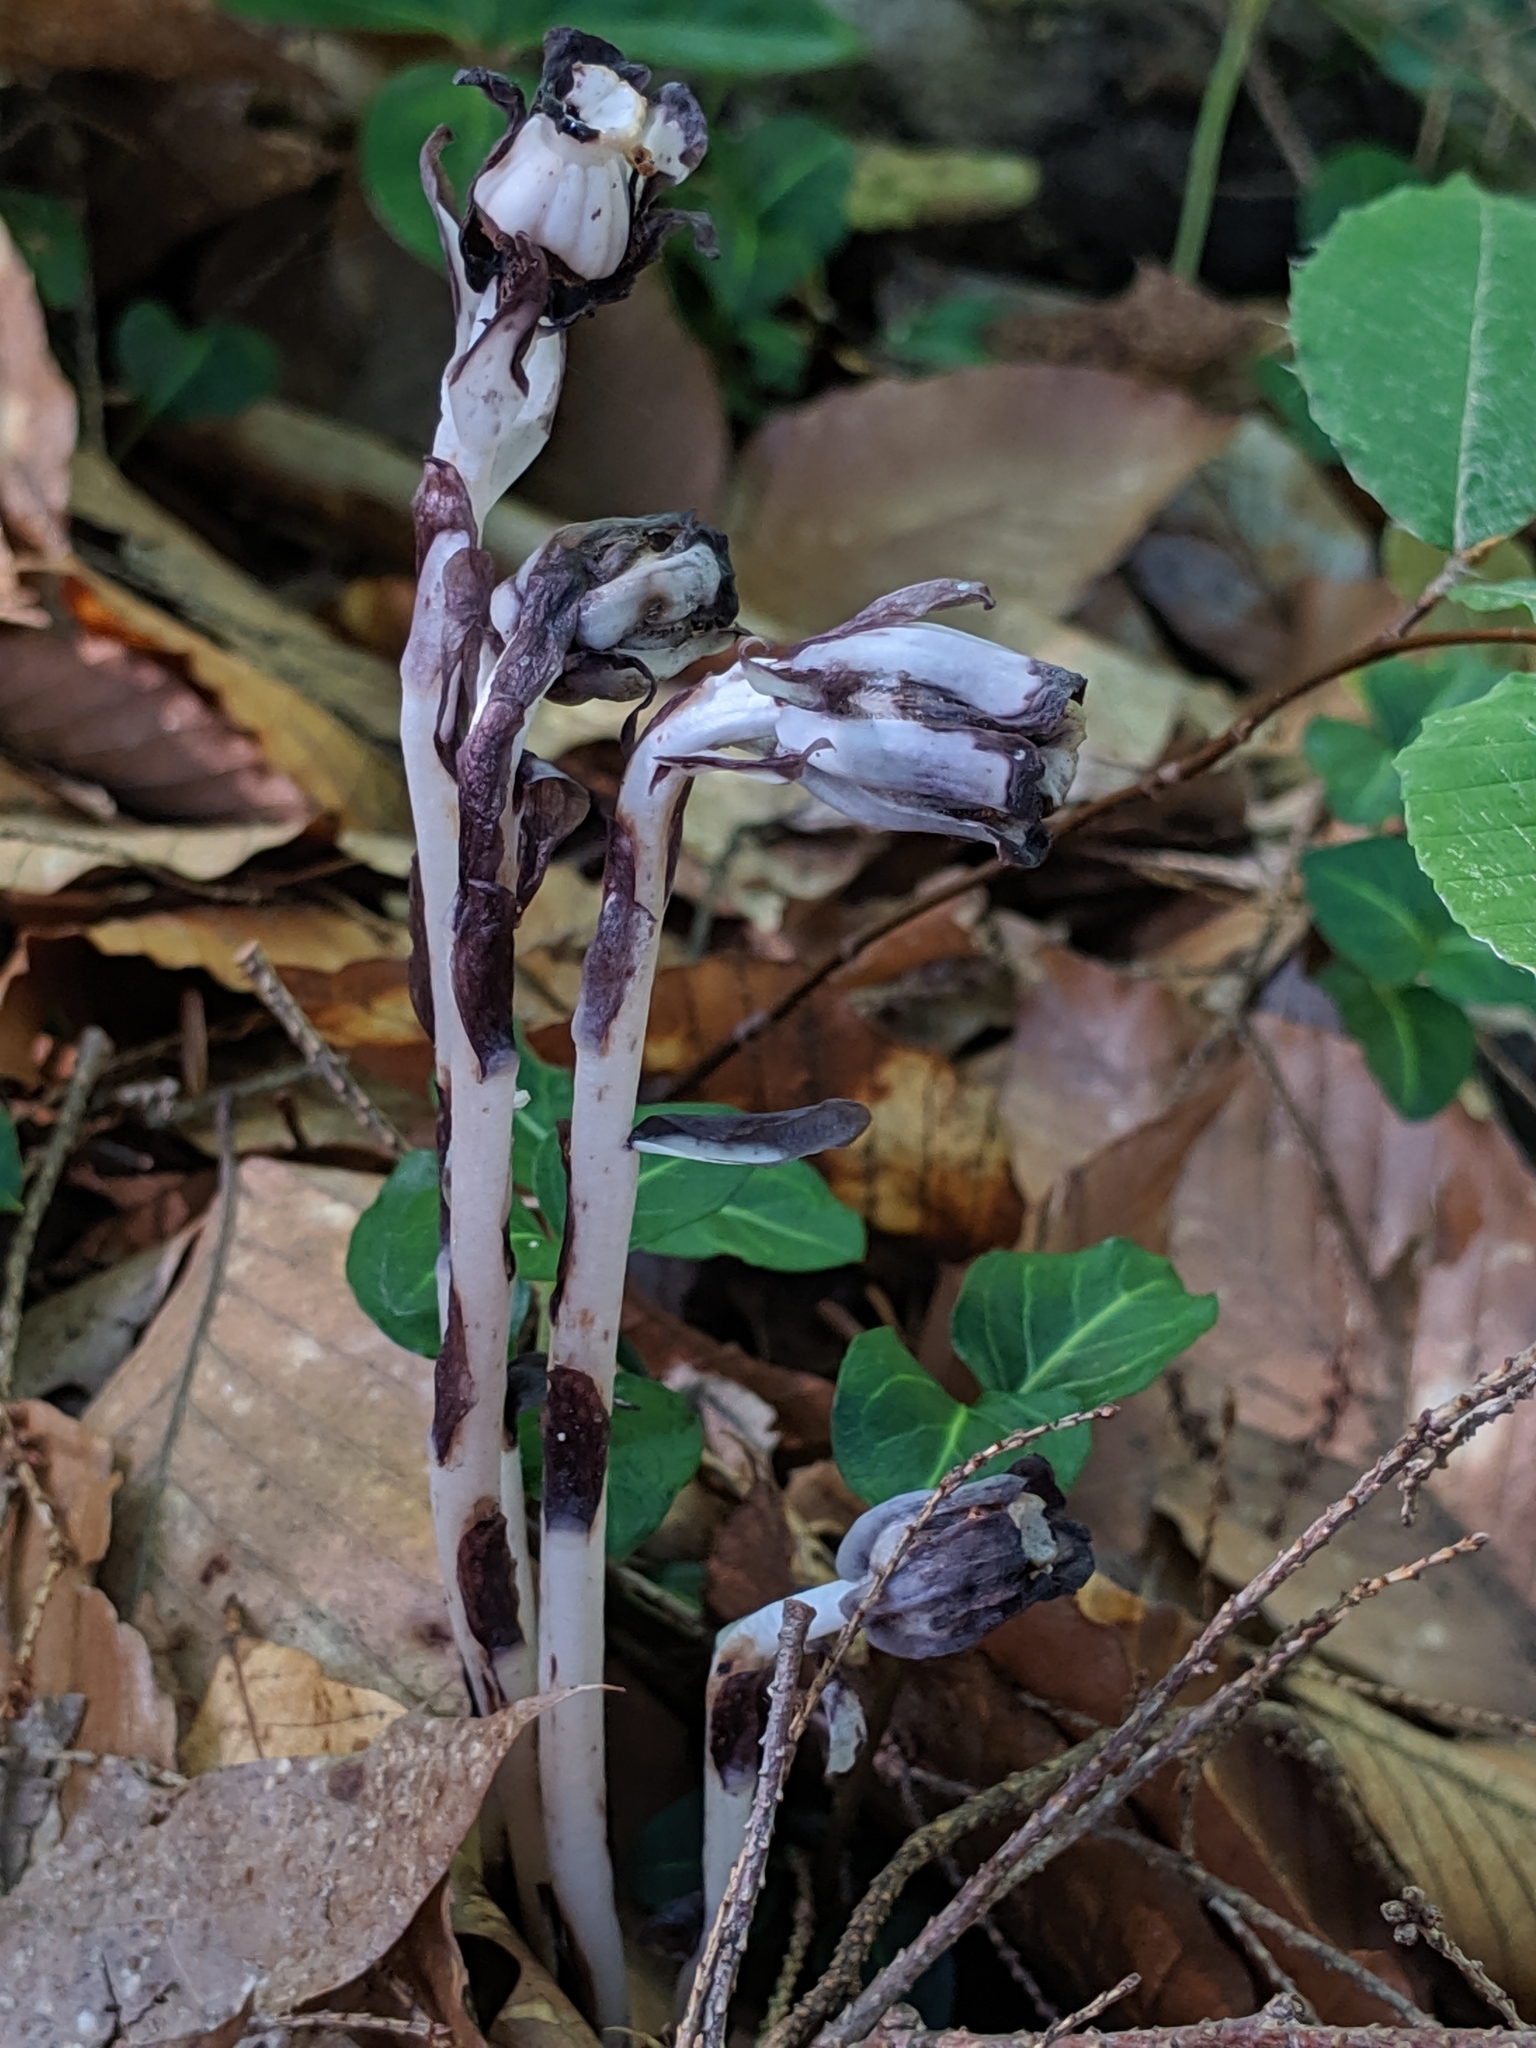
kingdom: Plantae
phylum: Tracheophyta
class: Magnoliopsida
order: Ericales
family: Ericaceae
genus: Monotropa
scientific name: Monotropa uniflora
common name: Convulsion root
